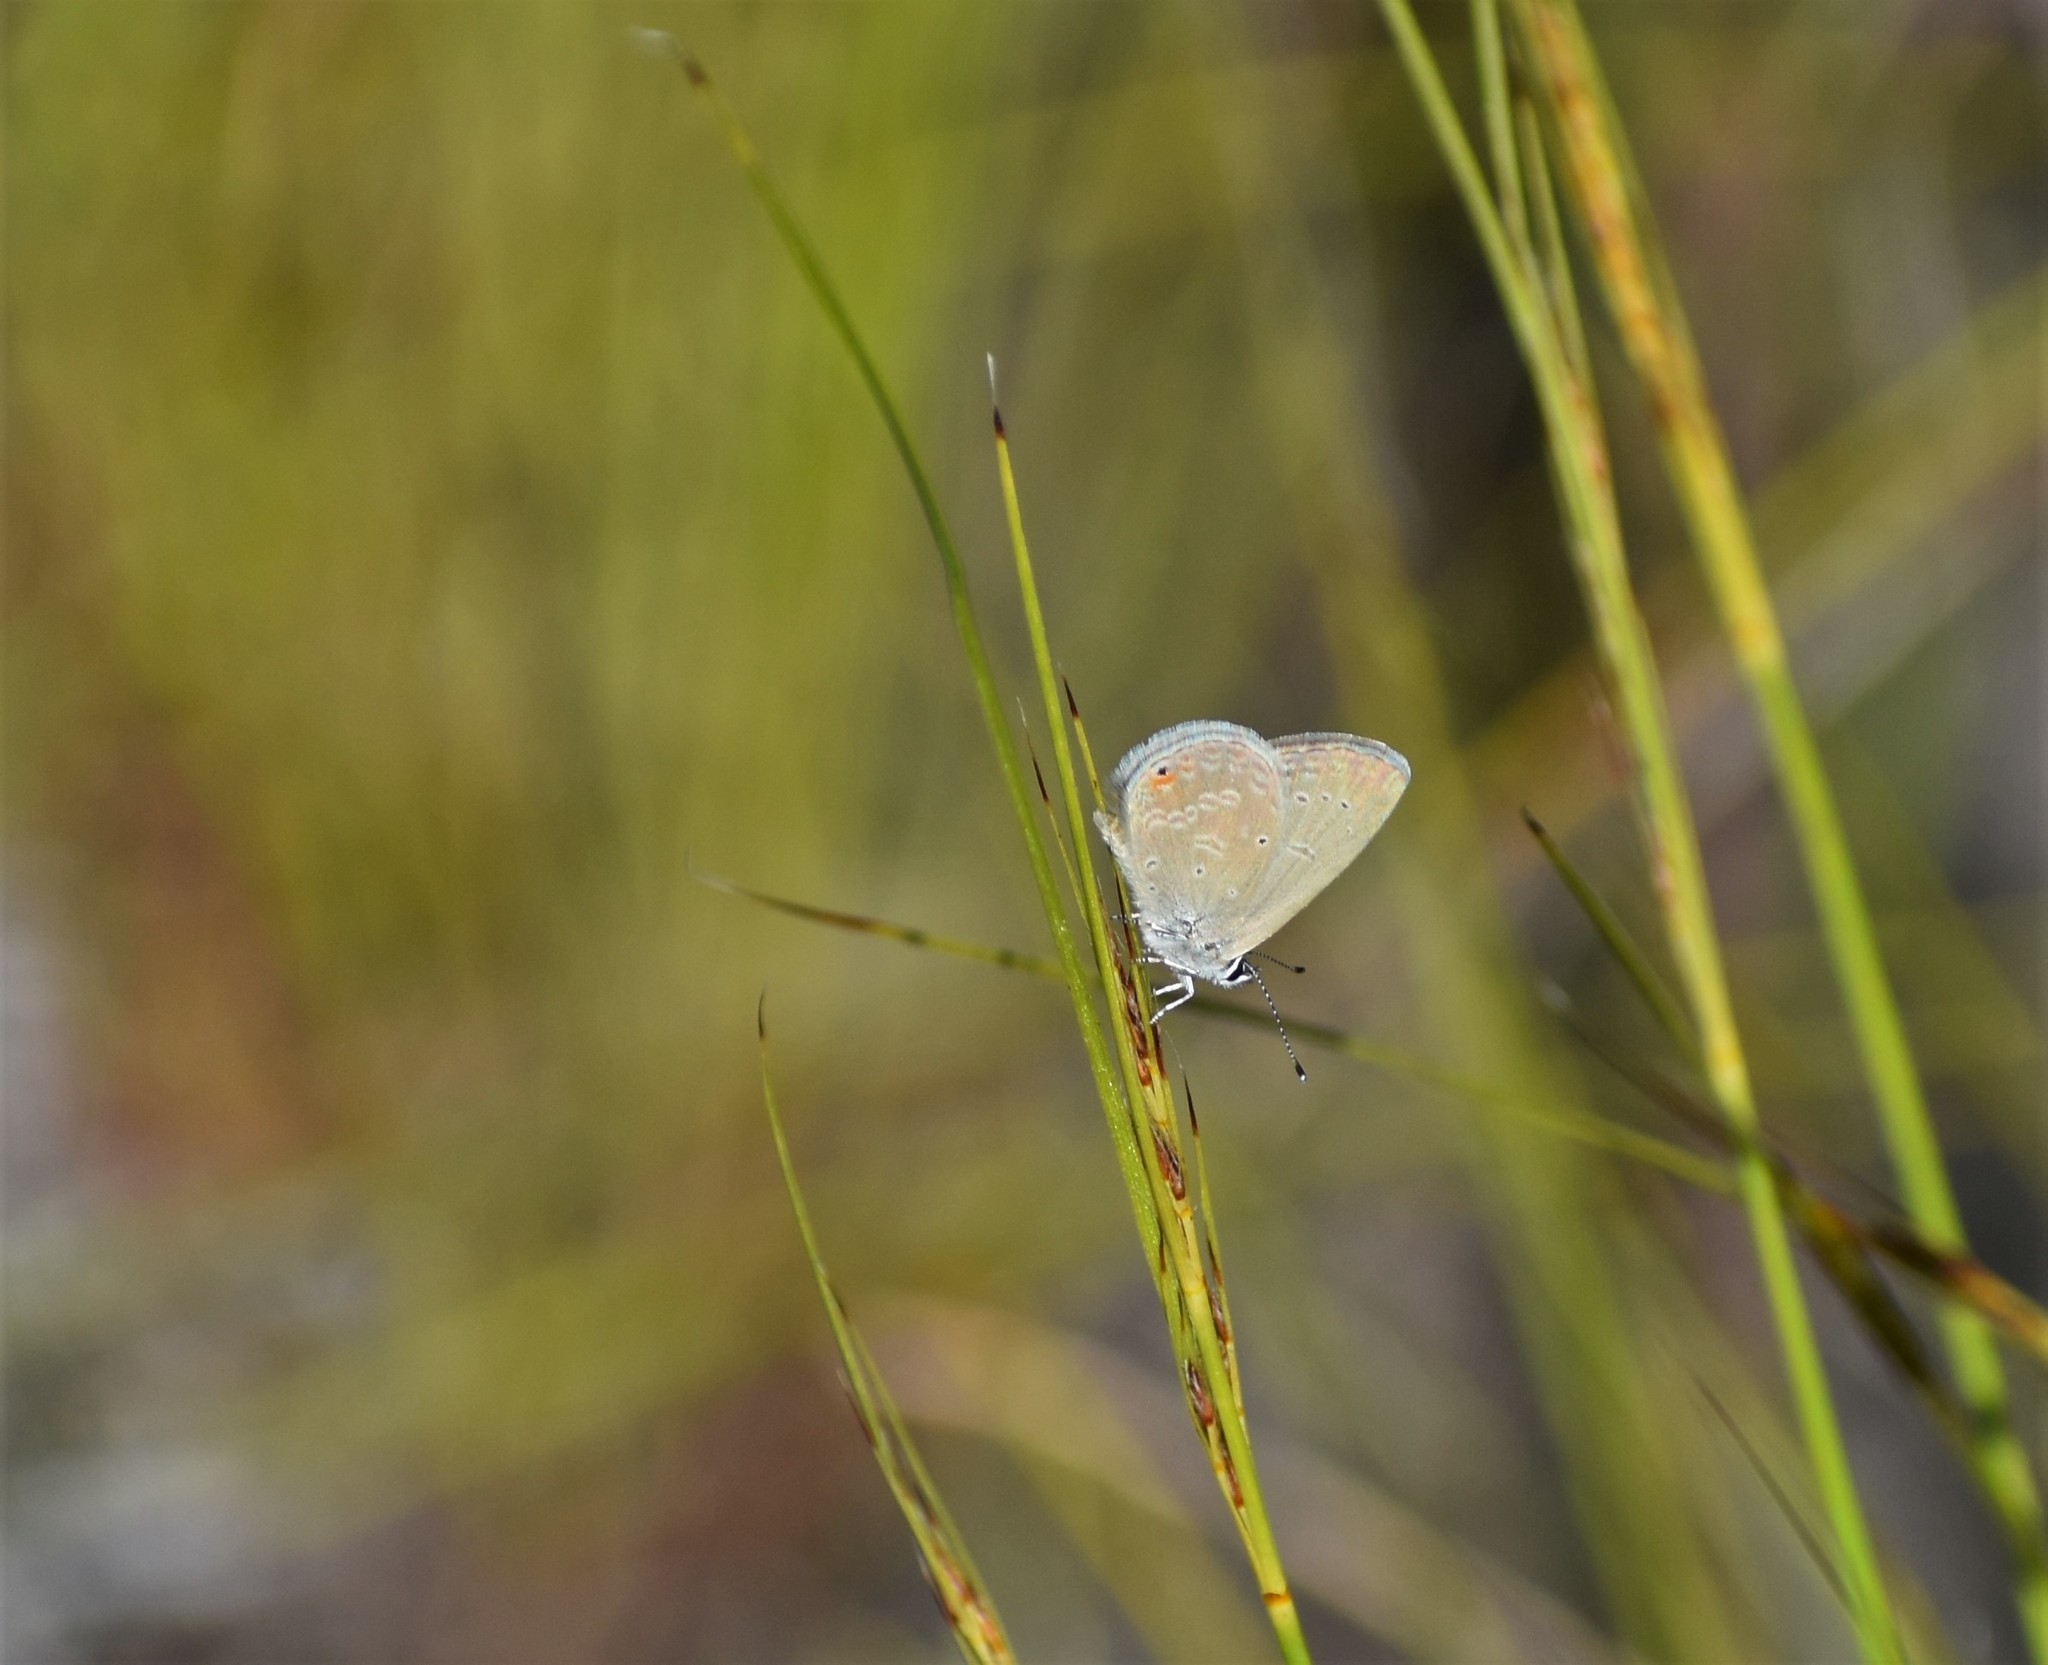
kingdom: Animalia
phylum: Arthropoda
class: Insecta
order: Lepidoptera
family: Lycaenidae
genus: Eicochrysops
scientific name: Eicochrysops messapus
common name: Cupreous blue
